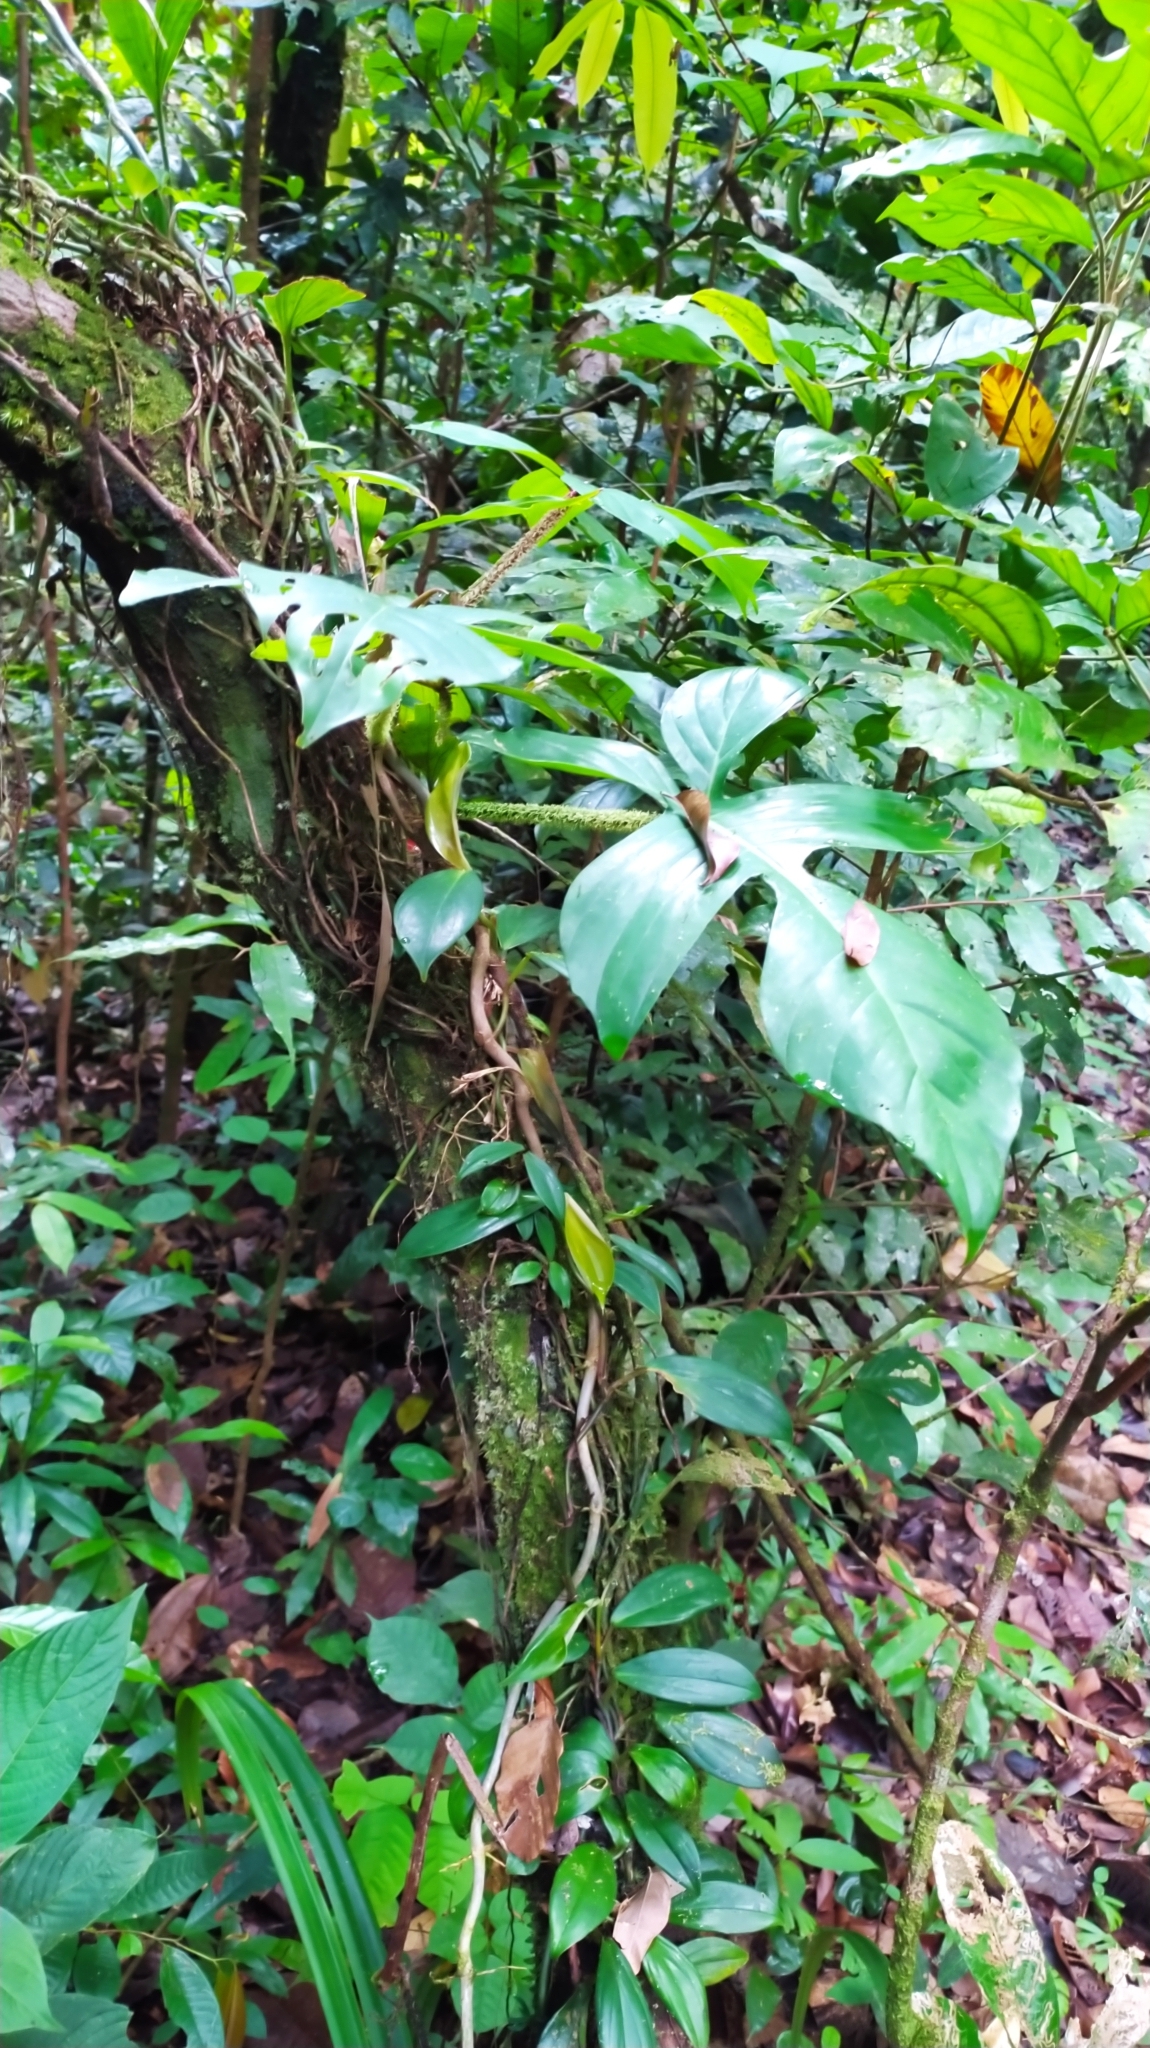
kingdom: Plantae
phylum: Tracheophyta
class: Liliopsida
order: Alismatales
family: Araceae
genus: Philodendron
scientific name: Philodendron squamiferum
